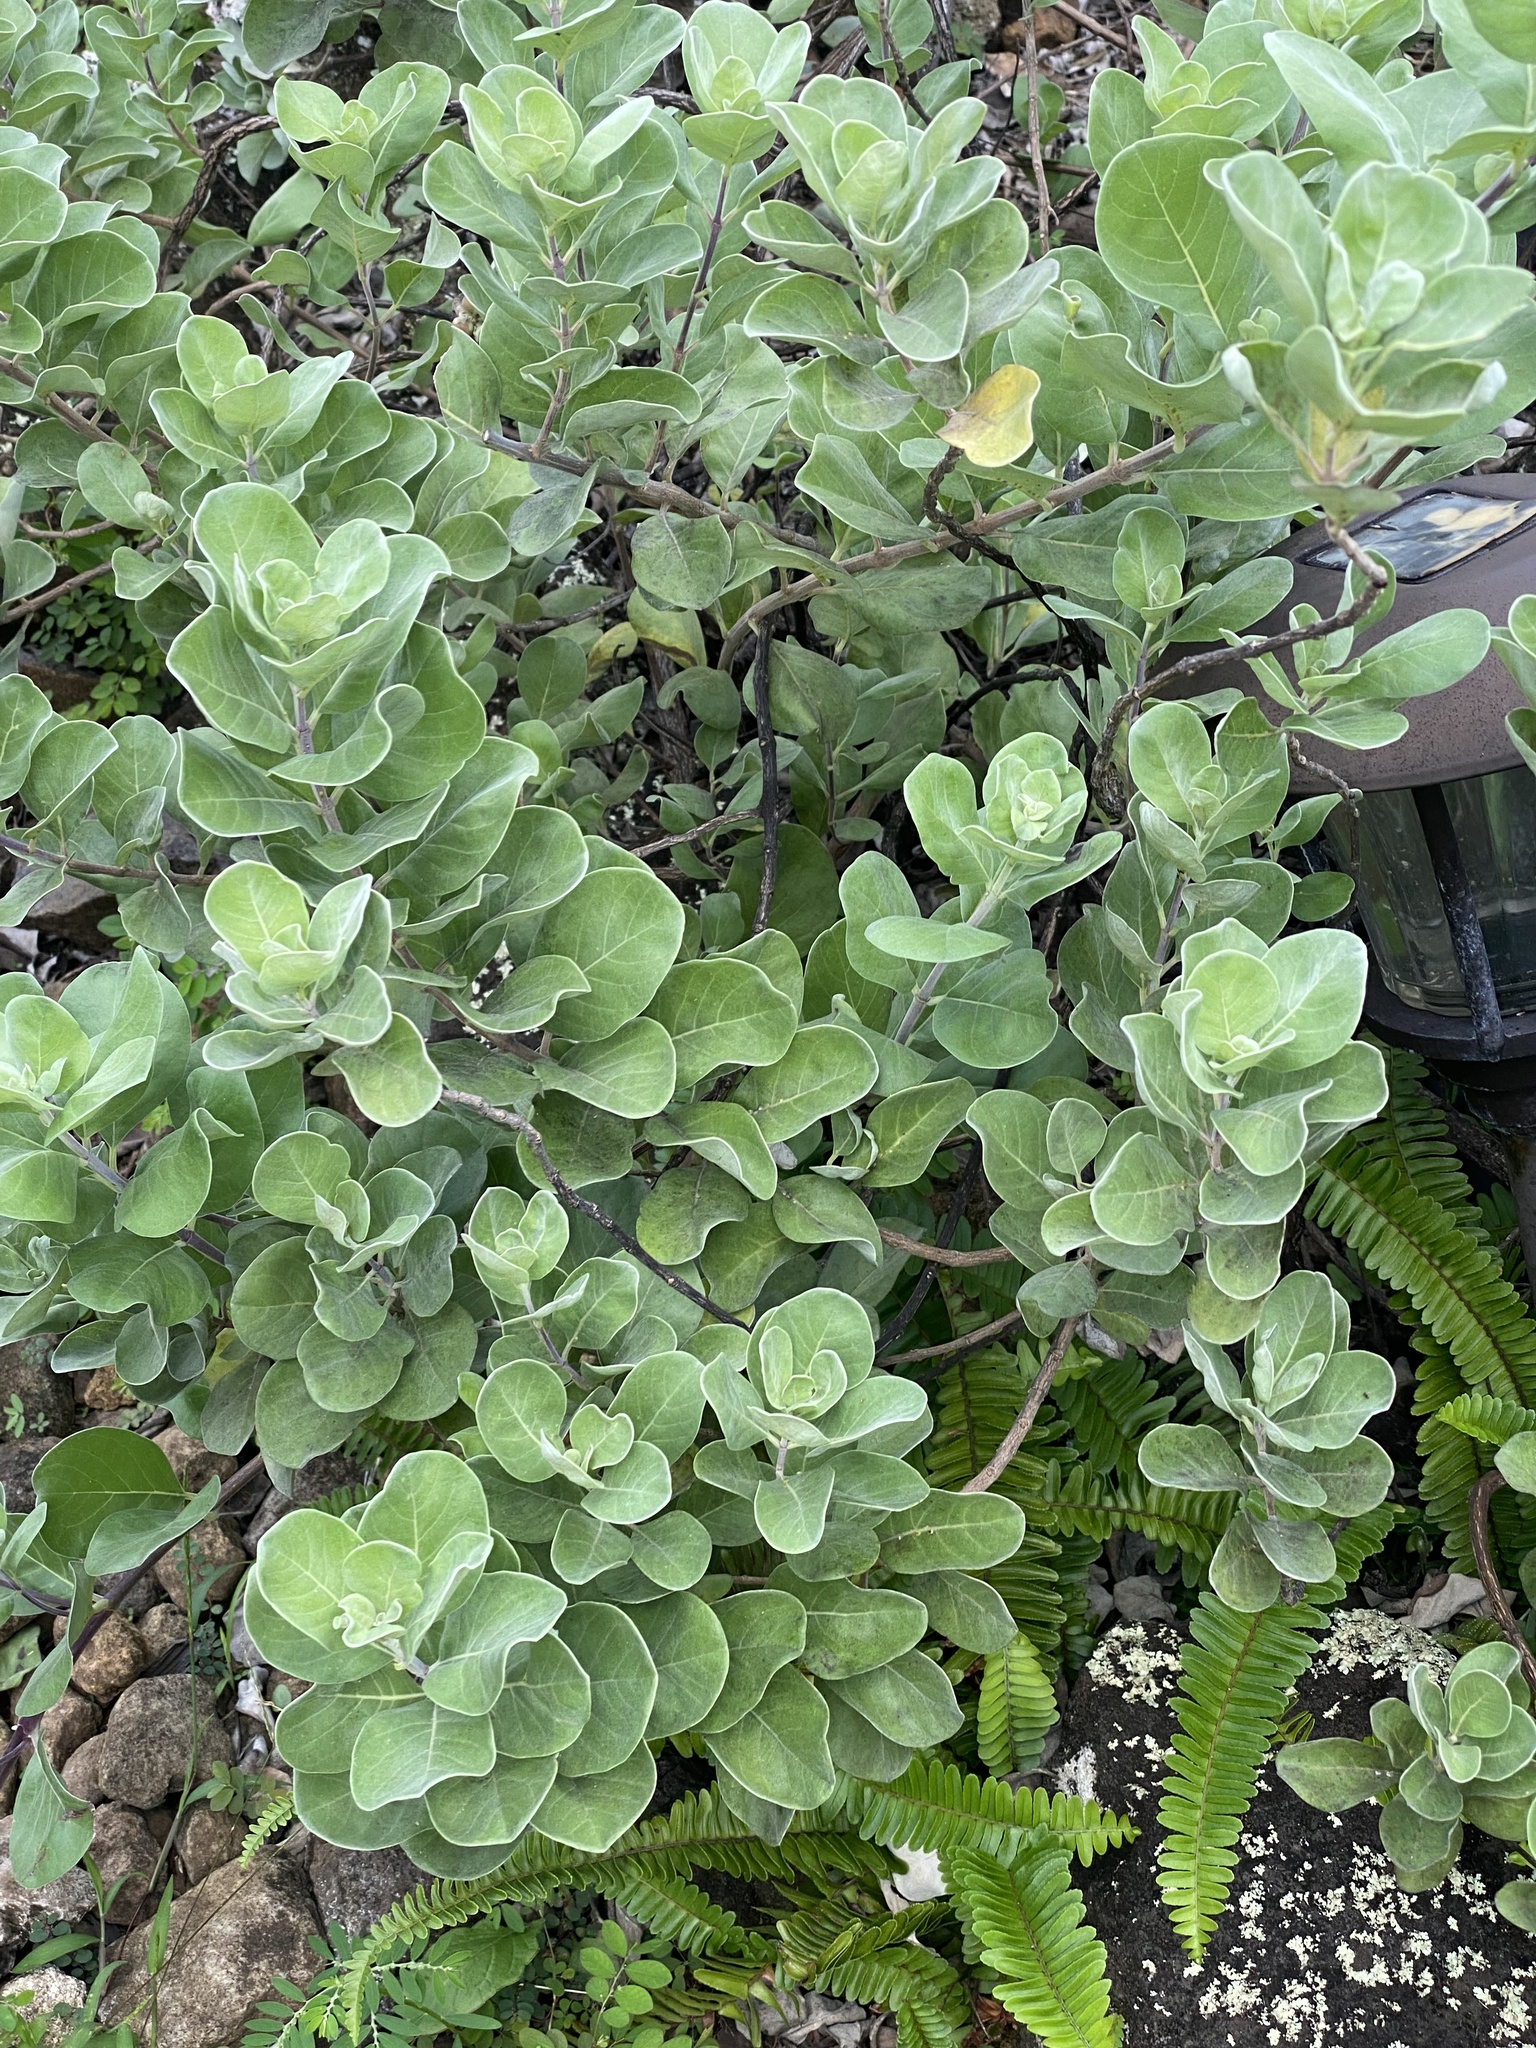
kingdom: Plantae
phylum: Tracheophyta
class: Magnoliopsida
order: Lamiales
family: Lamiaceae
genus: Vitex
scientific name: Vitex rotundifolia
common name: Beach vitex
